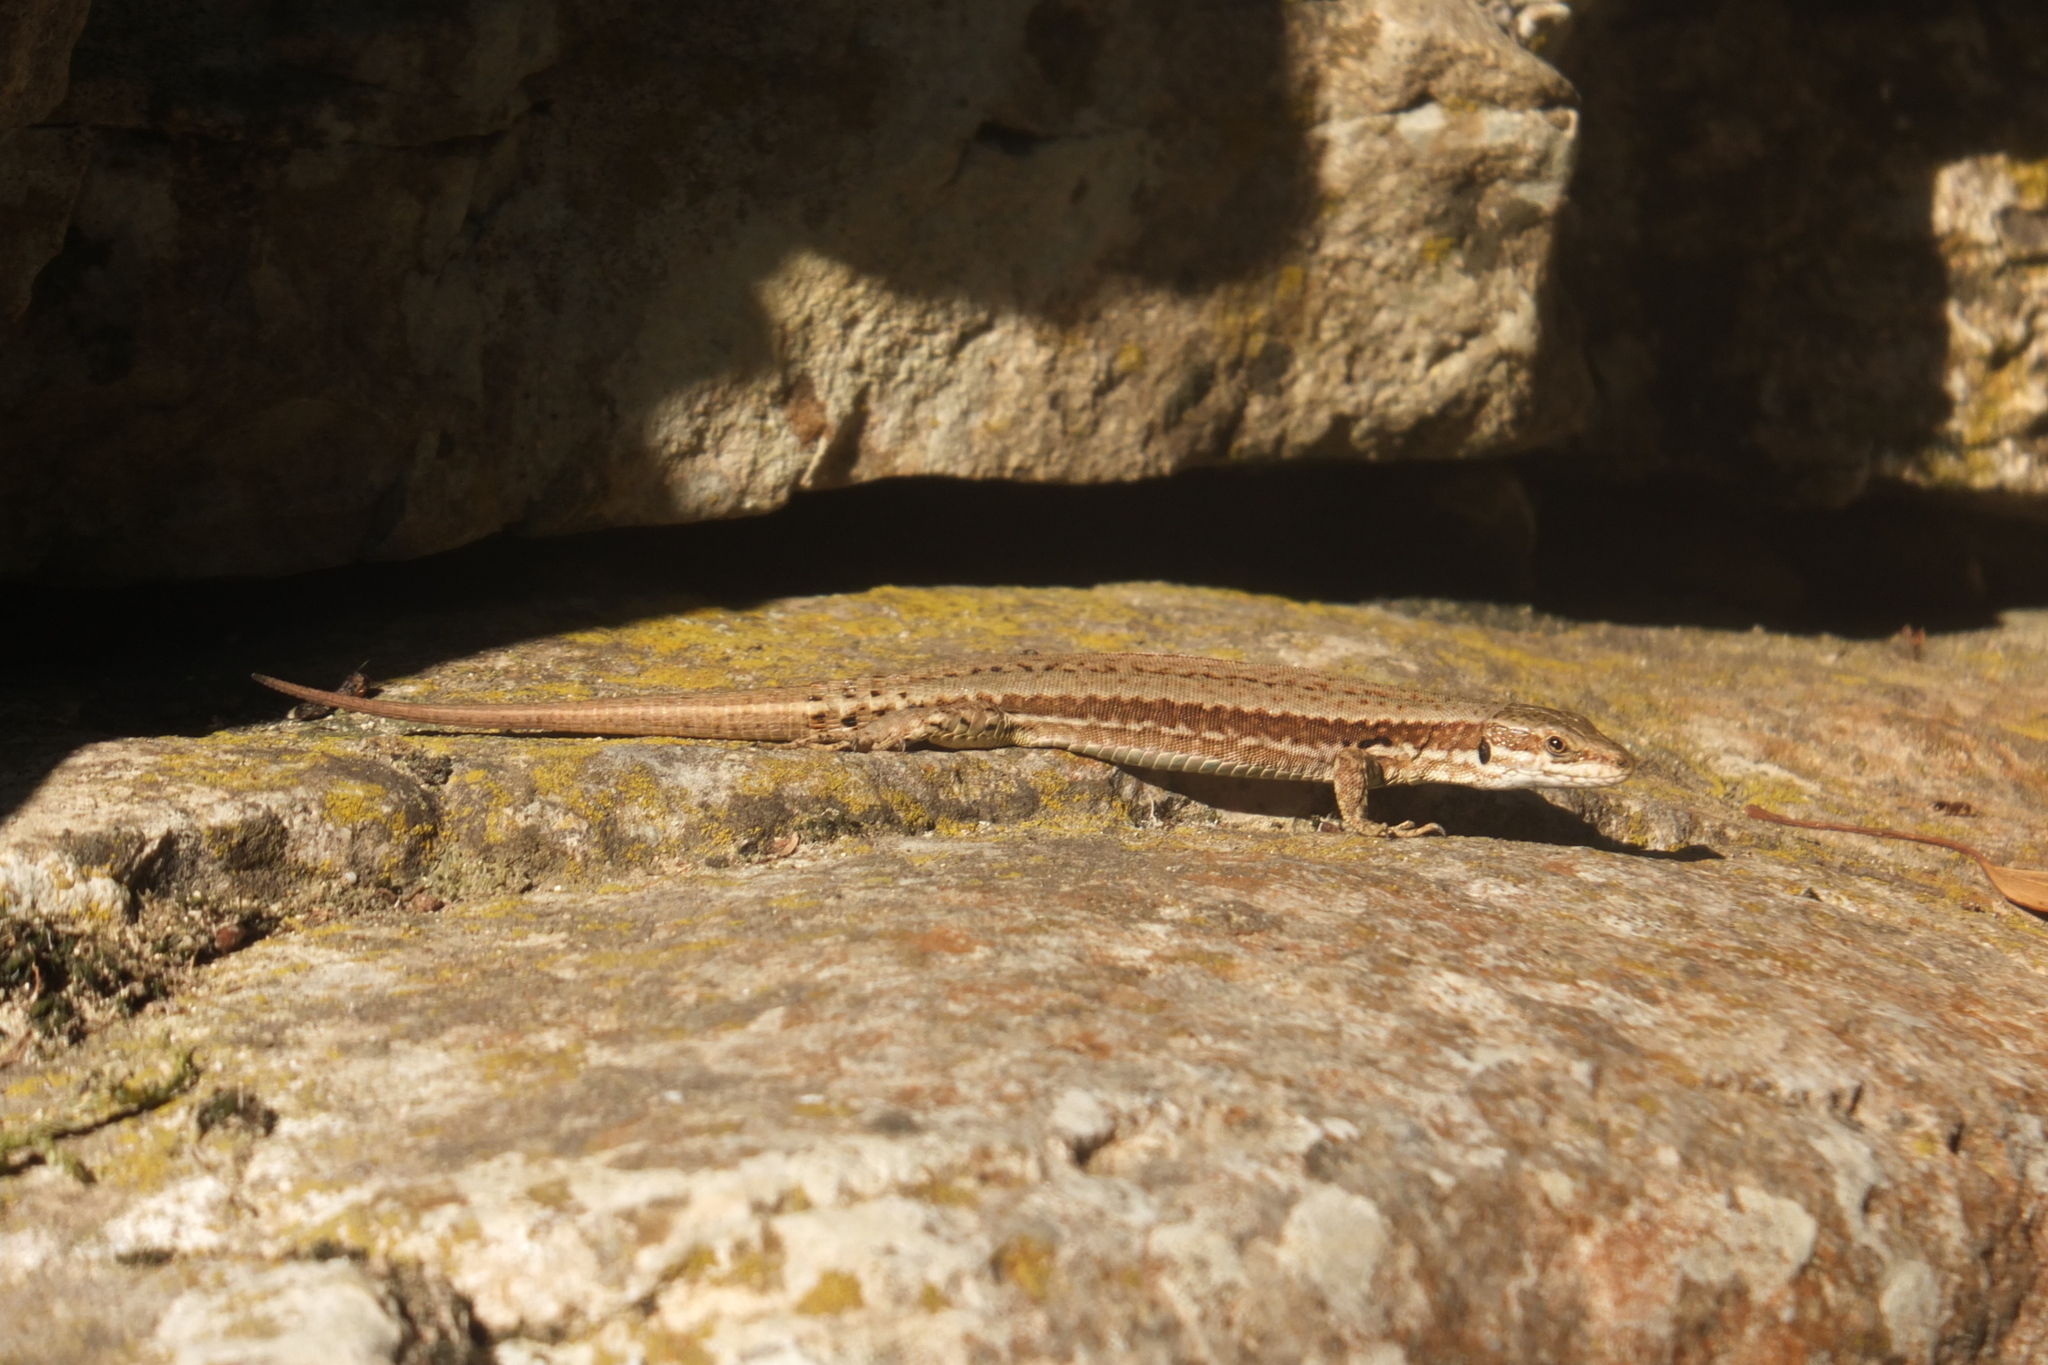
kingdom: Animalia
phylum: Chordata
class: Squamata
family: Lacertidae
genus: Podarcis
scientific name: Podarcis muralis
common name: Common wall lizard
